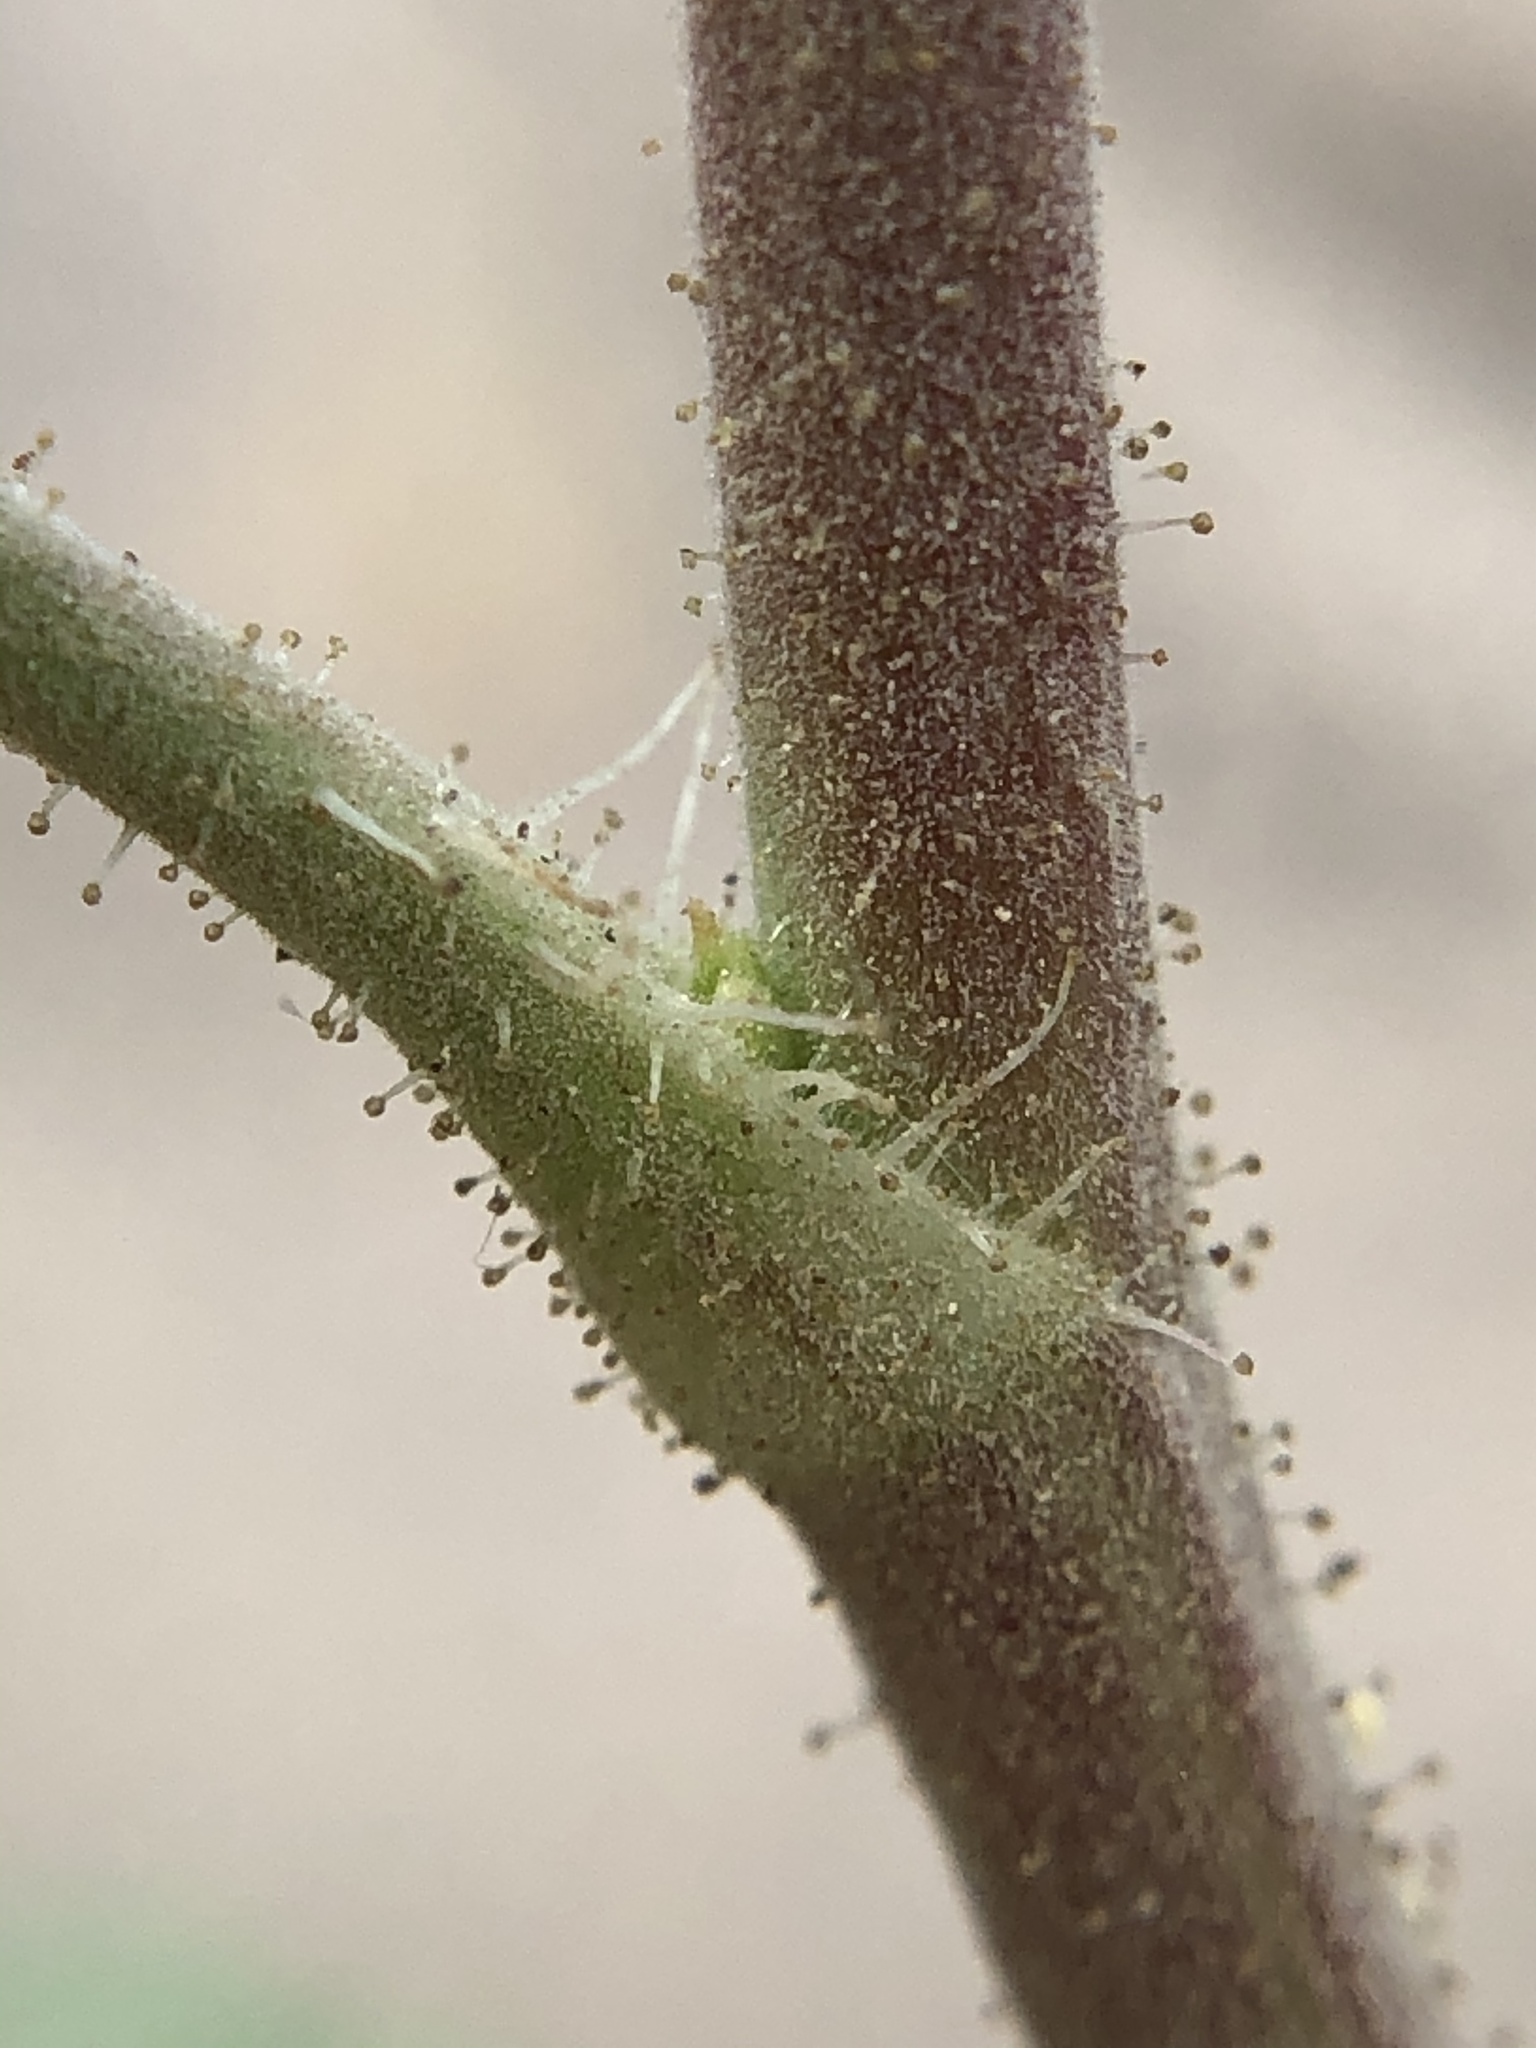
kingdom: Plantae
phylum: Tracheophyta
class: Magnoliopsida
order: Saxifragales
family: Grossulariaceae
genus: Ribes
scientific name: Ribes viscosissimum
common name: Sticky currant
